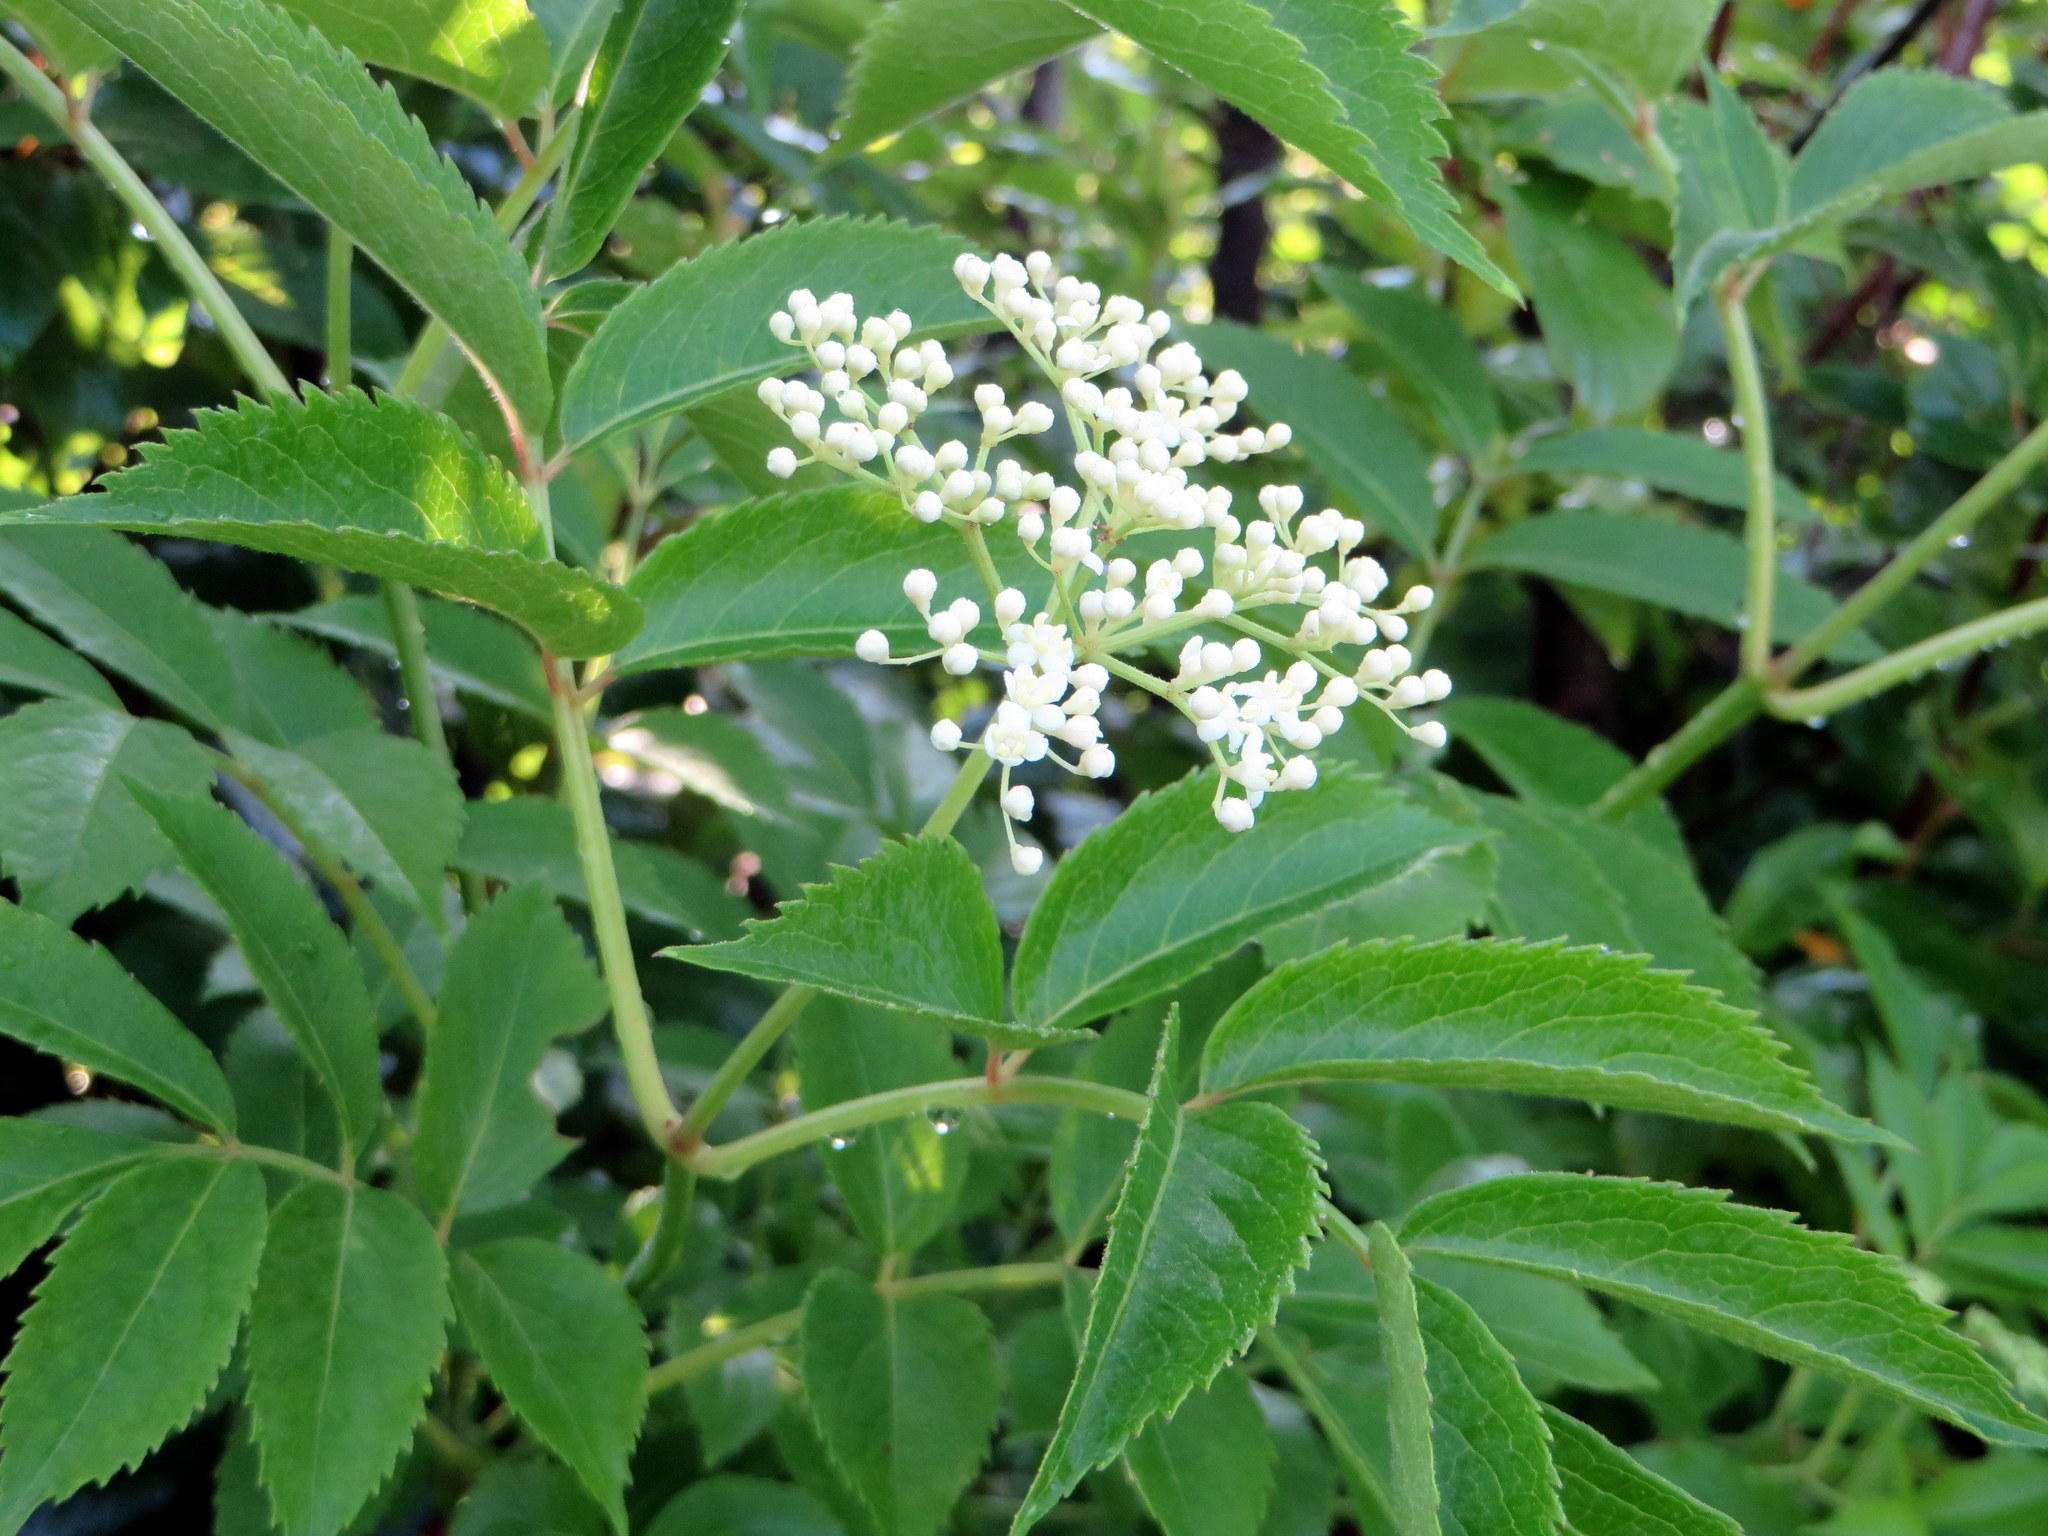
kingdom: Plantae
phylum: Tracheophyta
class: Magnoliopsida
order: Dipsacales
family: Viburnaceae
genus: Sambucus
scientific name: Sambucus canadensis
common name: American elder
